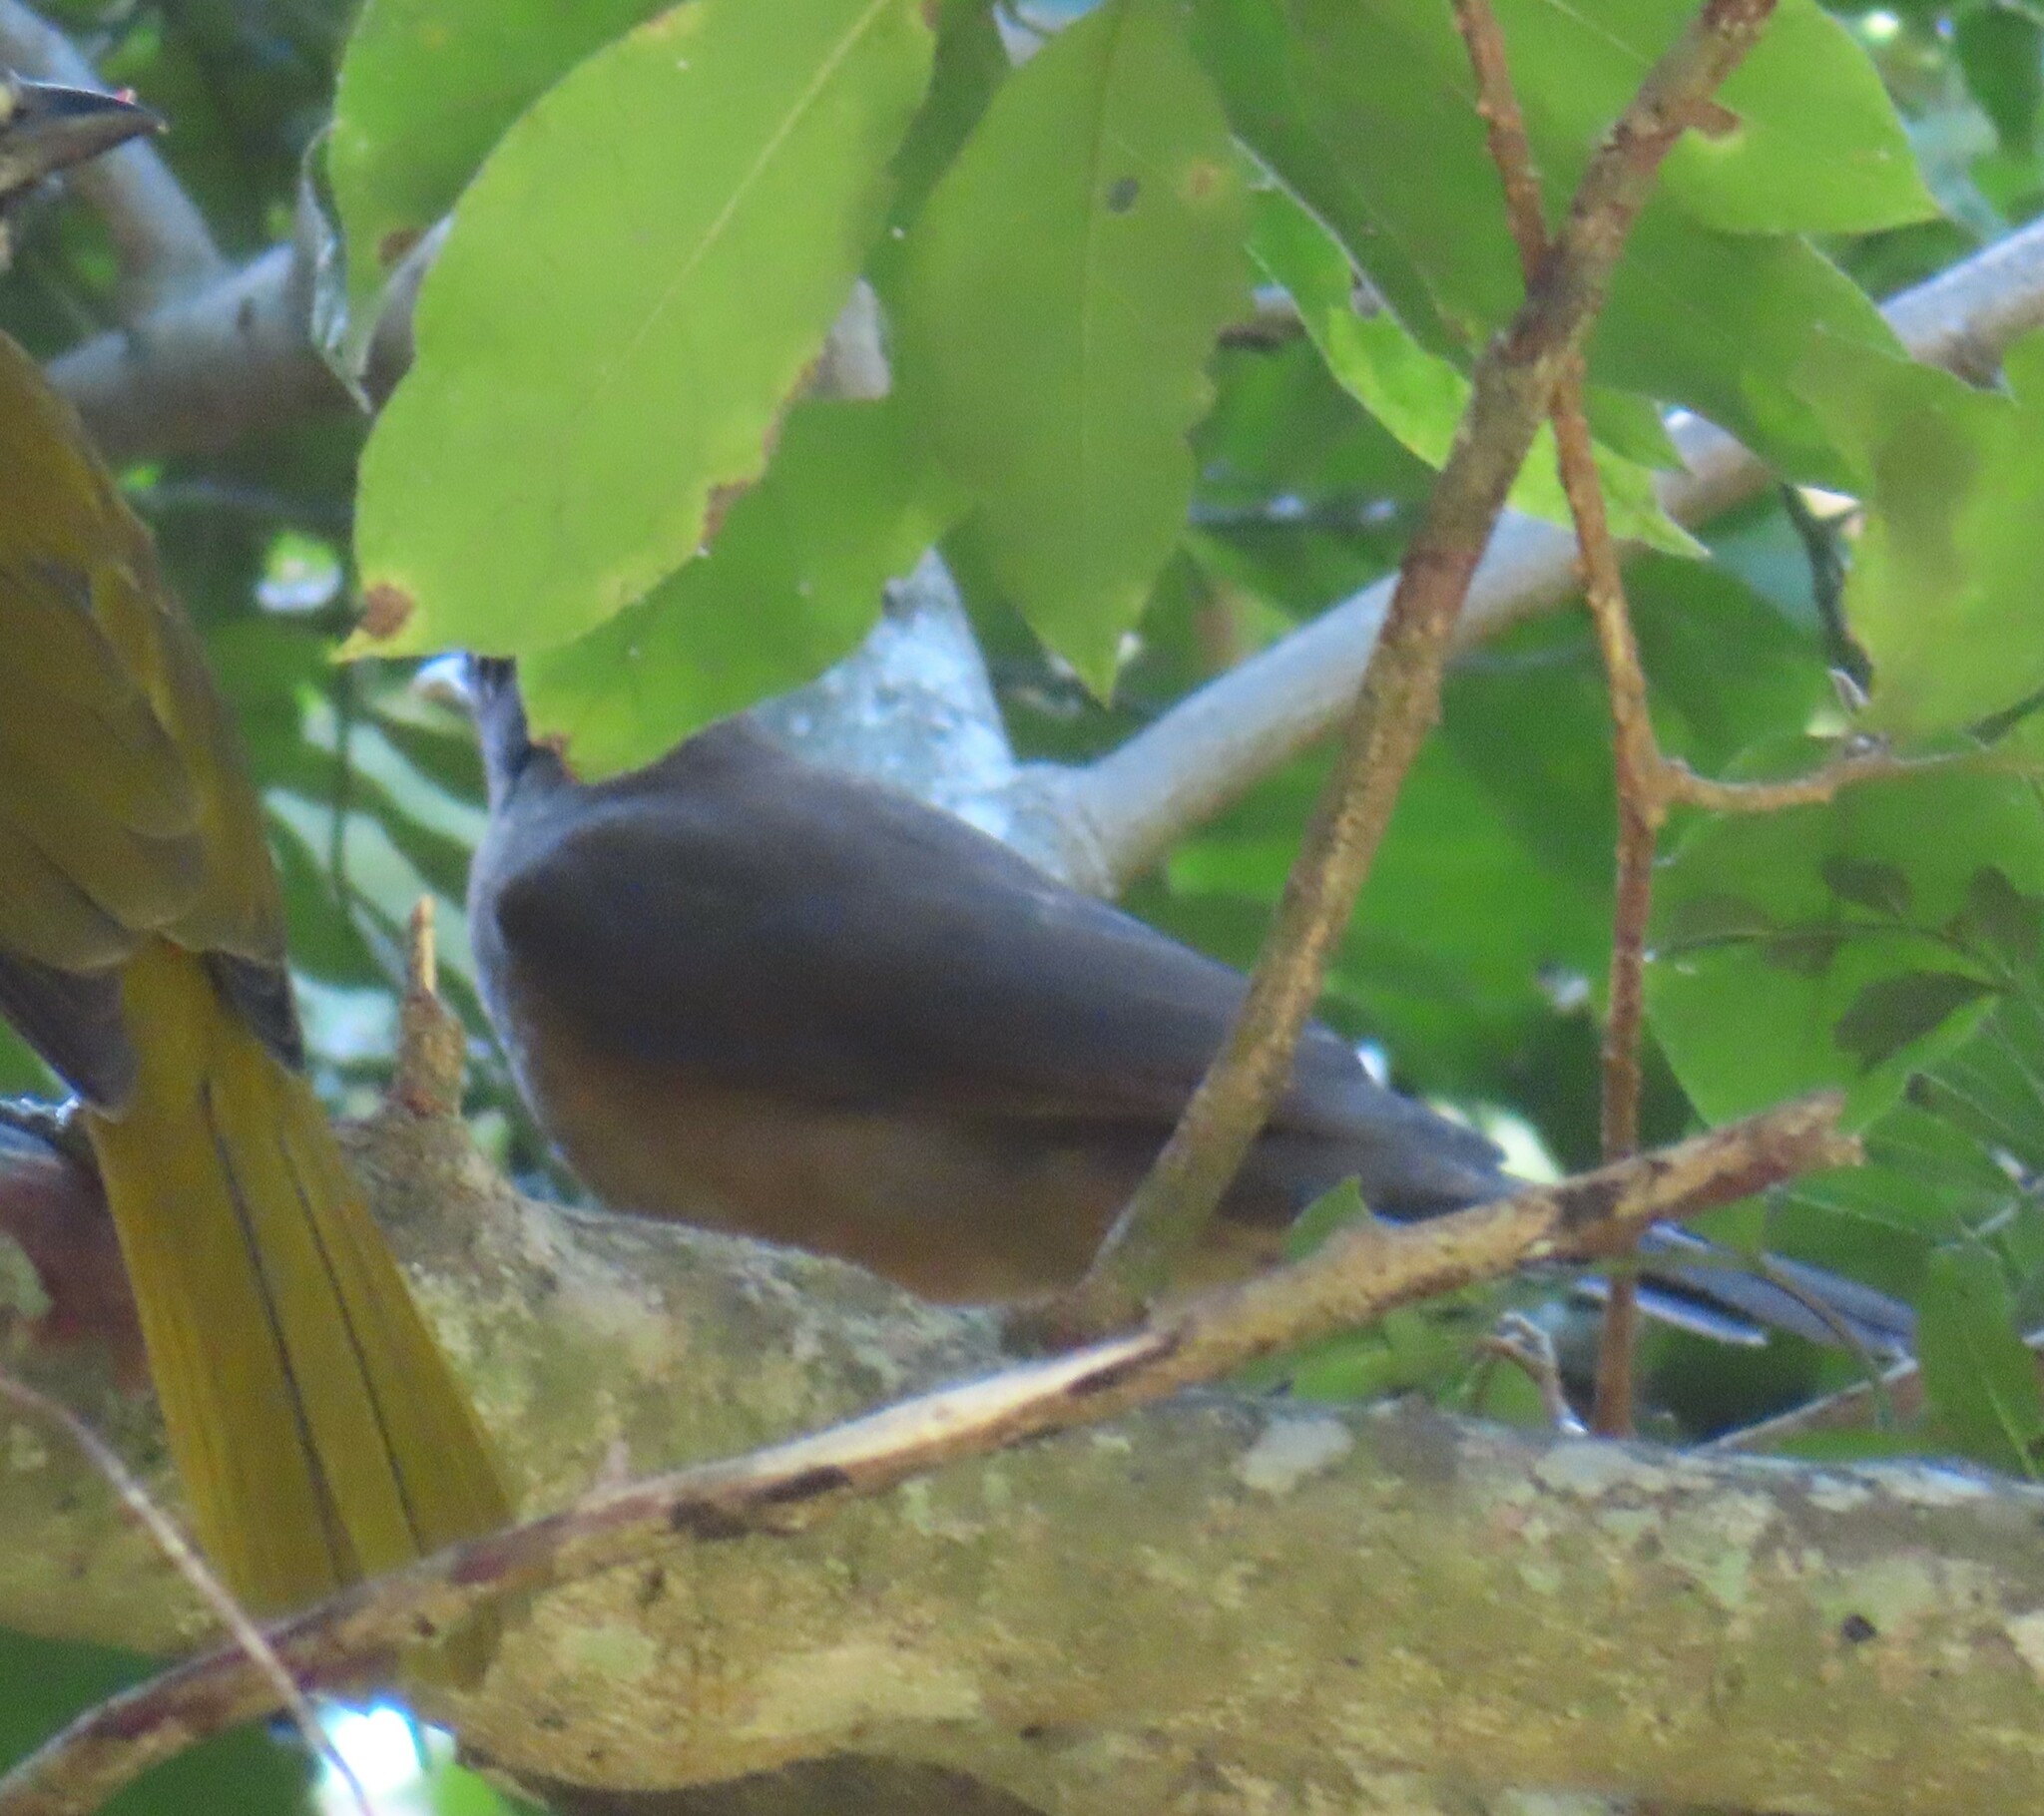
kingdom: Animalia
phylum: Chordata
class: Aves
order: Passeriformes
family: Turdidae
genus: Turdus
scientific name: Turdus grayi
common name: Clay-colored thrush
